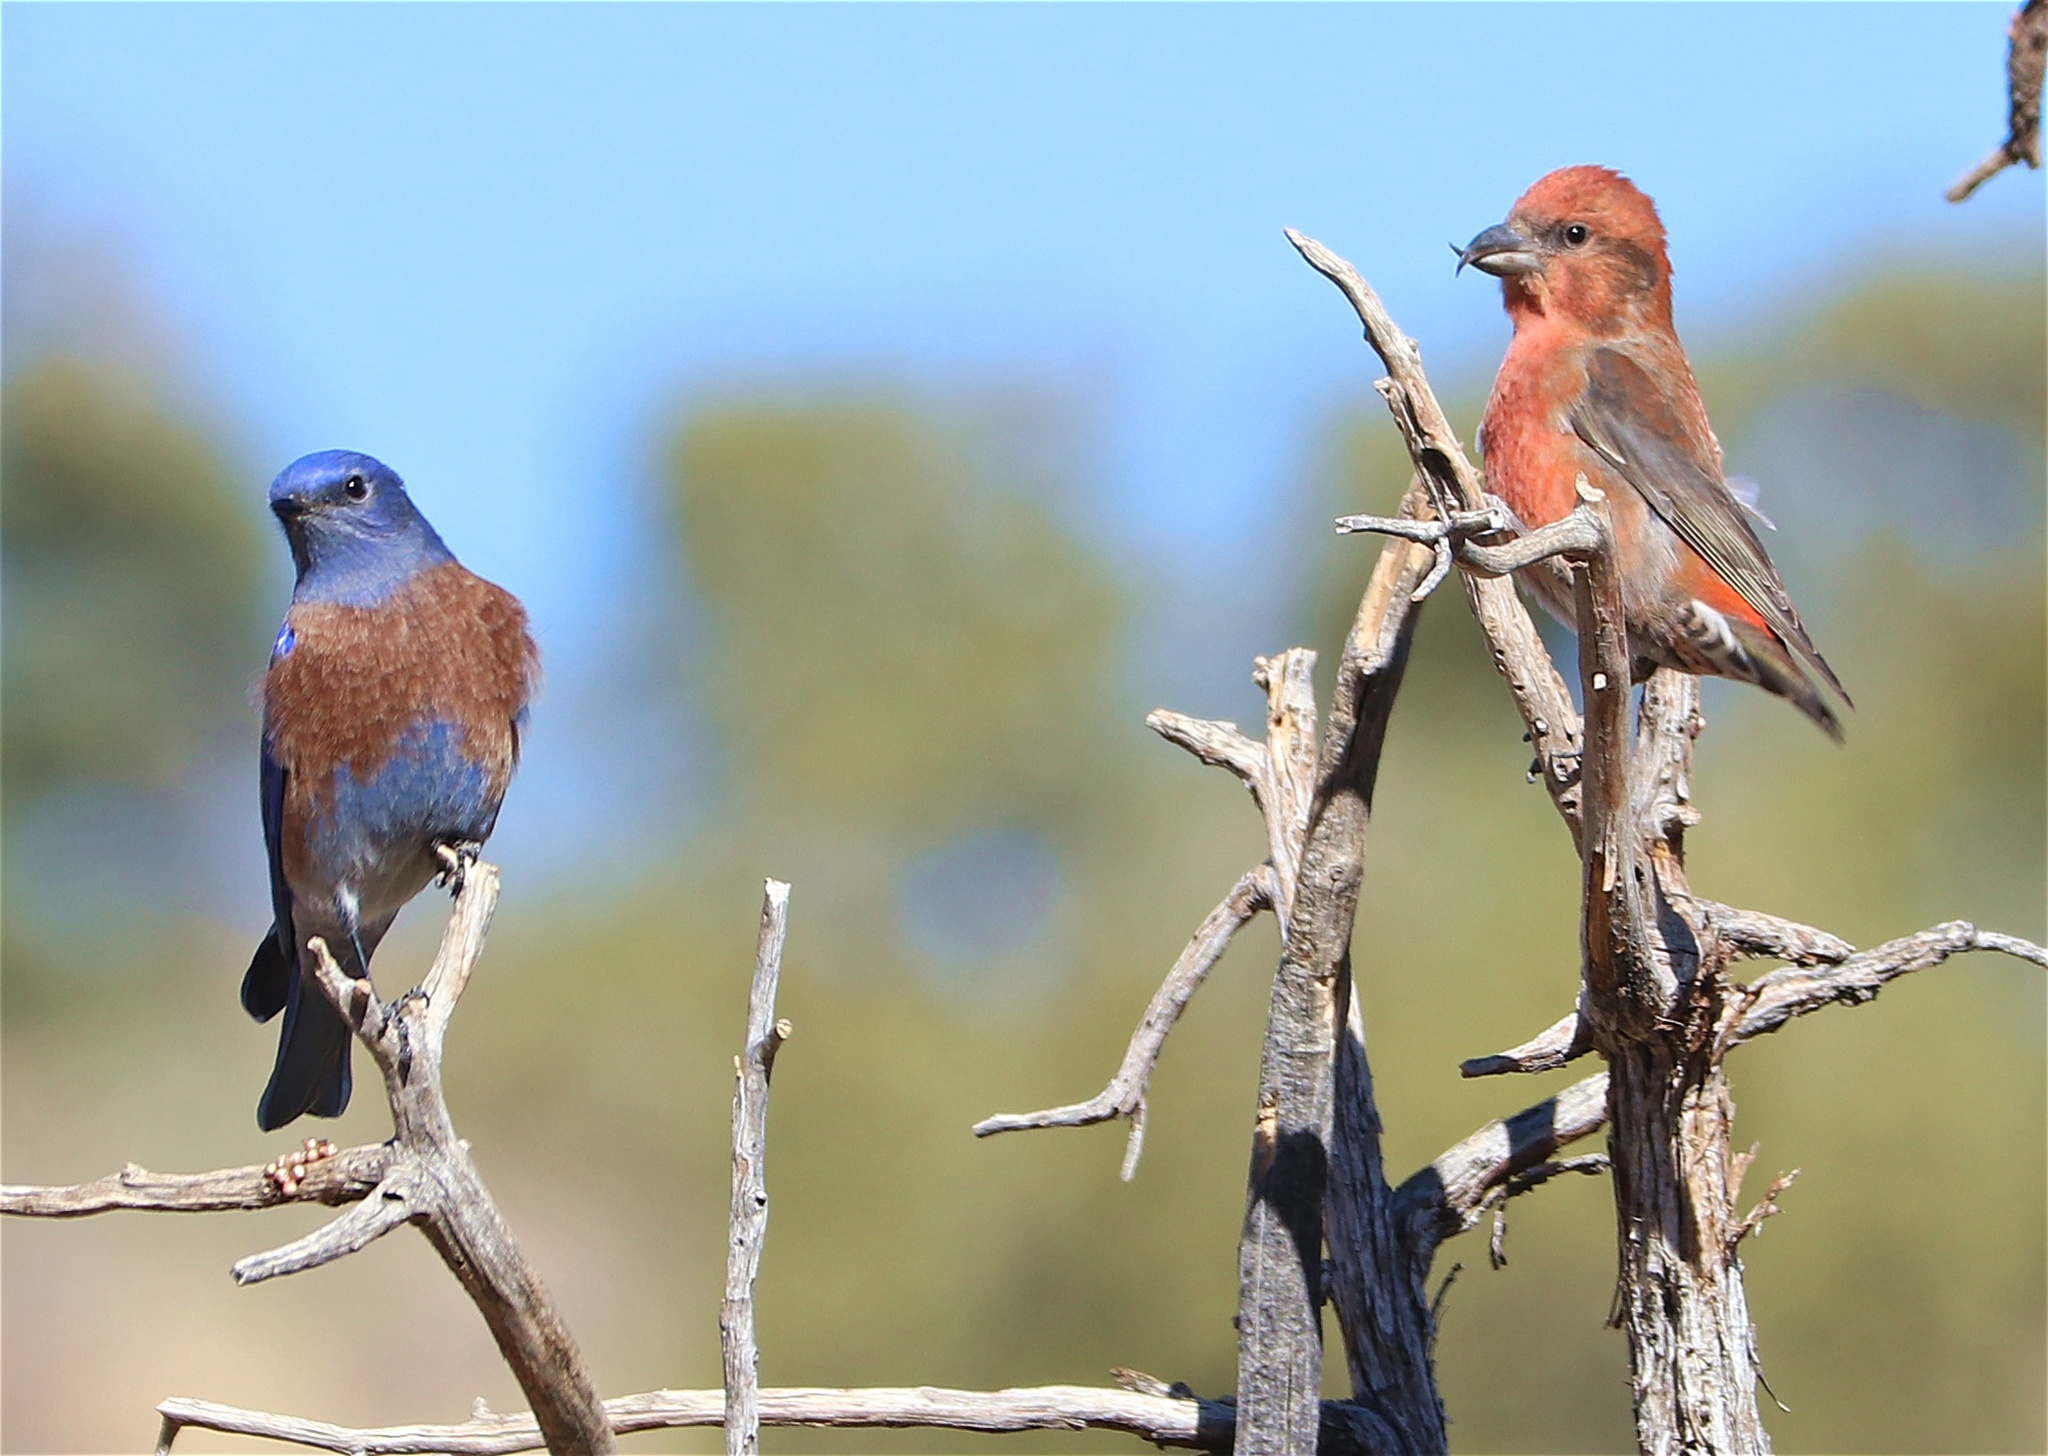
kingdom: Animalia
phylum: Chordata
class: Aves
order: Passeriformes
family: Fringillidae
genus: Loxia
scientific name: Loxia curvirostra
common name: Red crossbill
